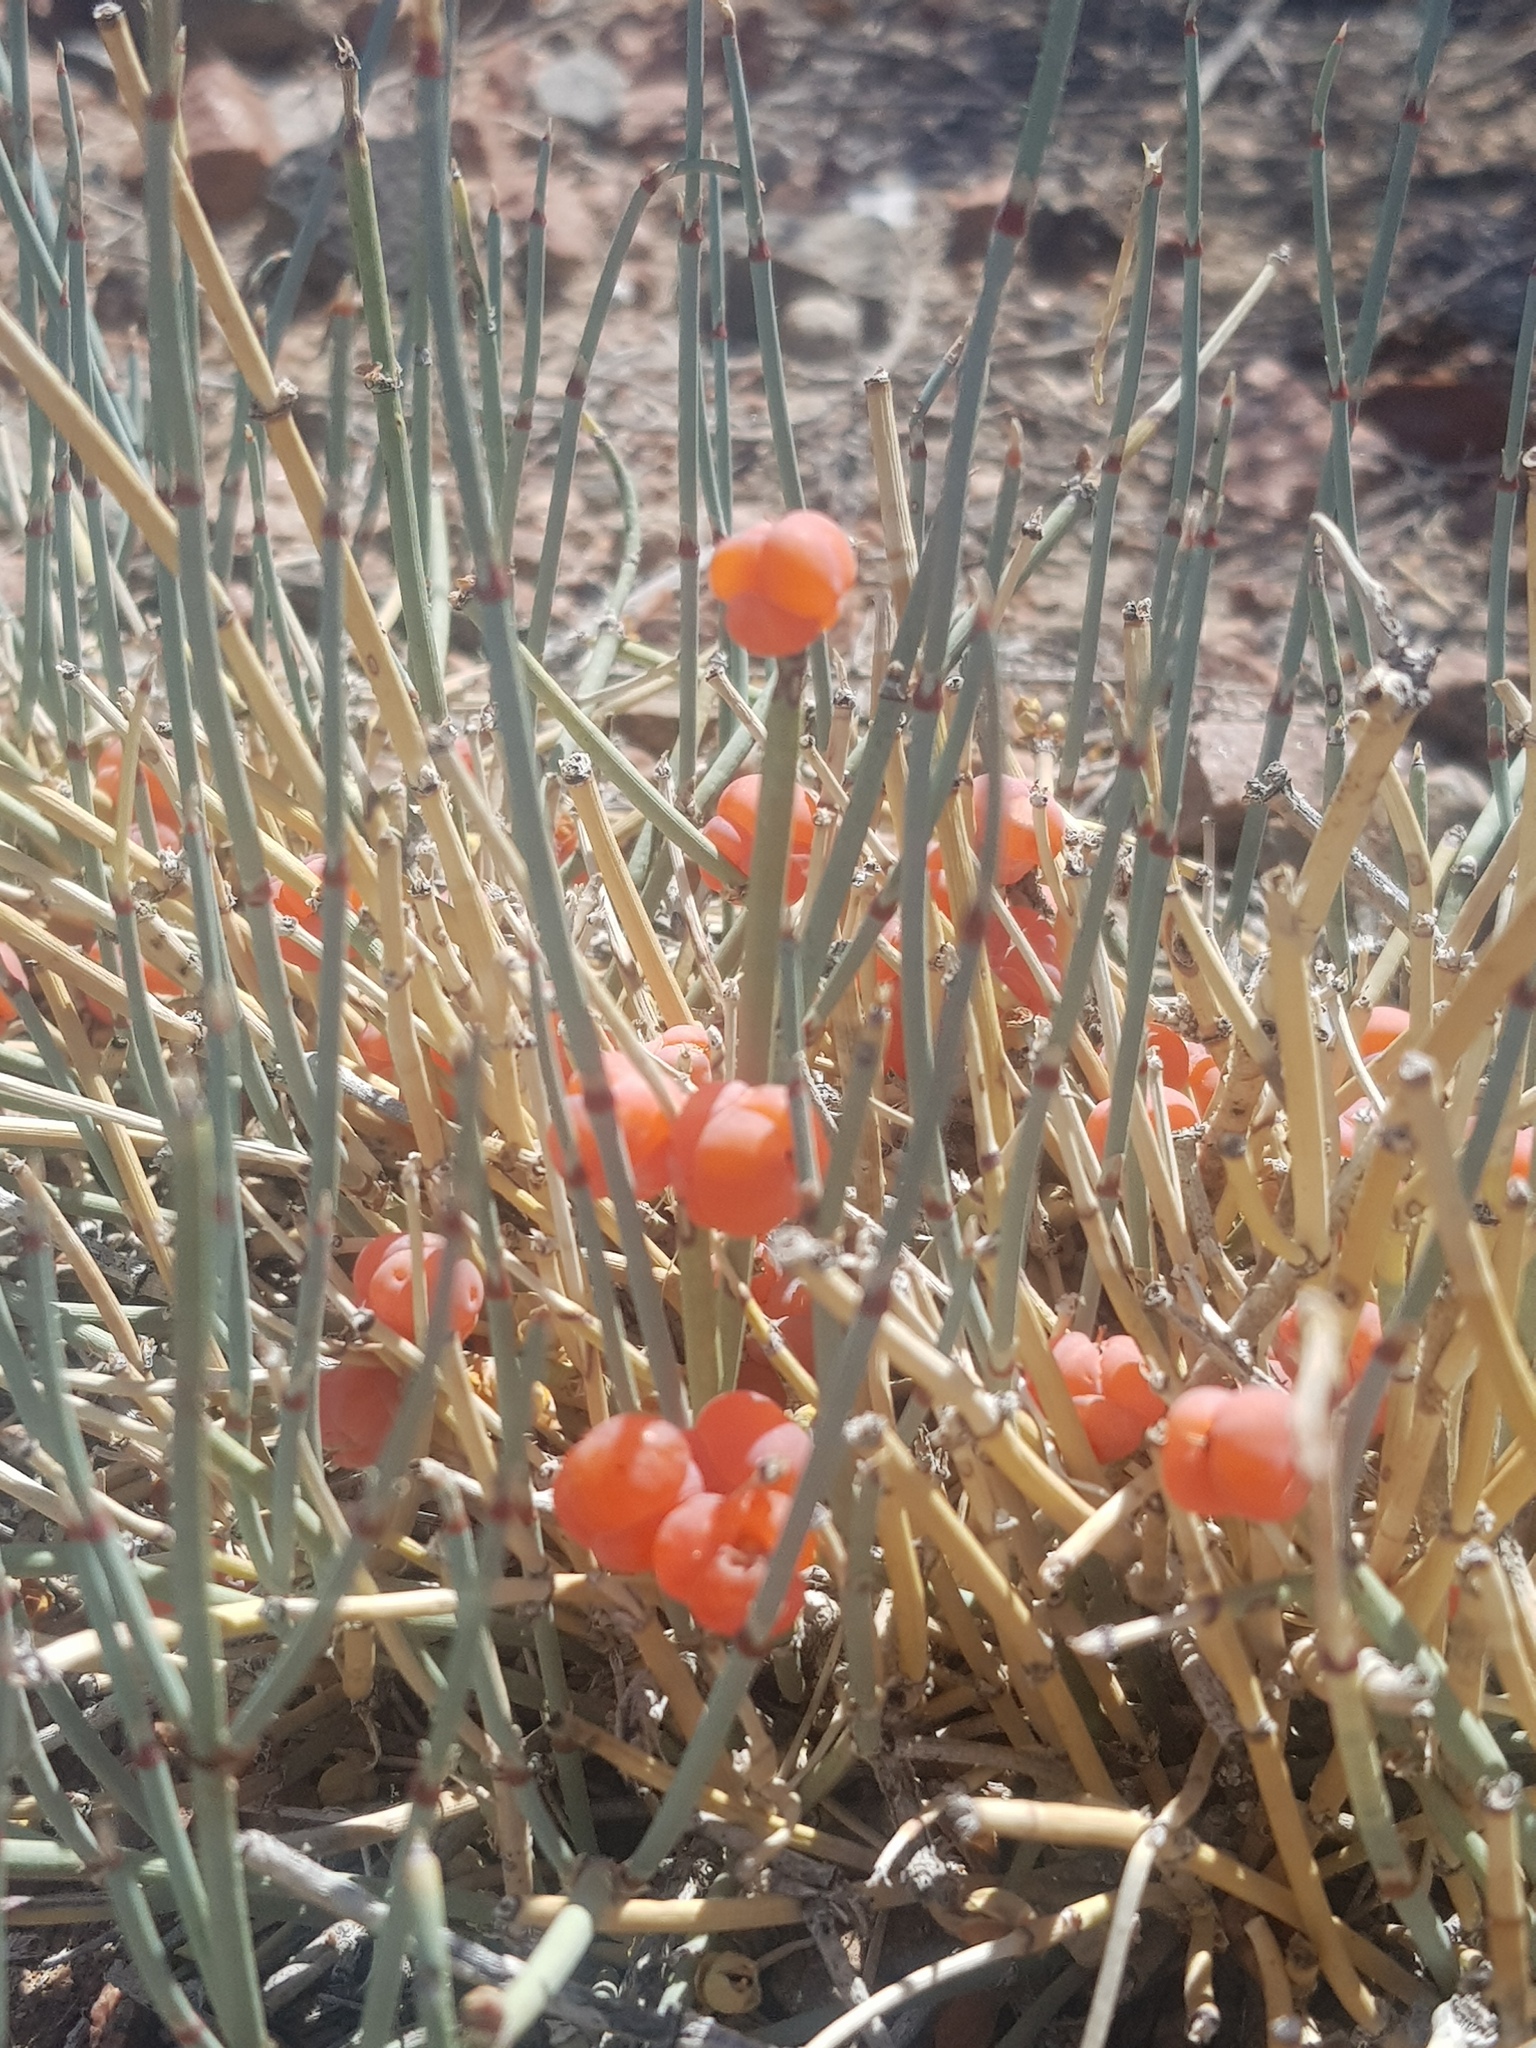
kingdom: Plantae
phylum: Tracheophyta
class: Gnetopsida
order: Ephedrales
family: Ephedraceae
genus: Ephedra
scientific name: Ephedra equisetina
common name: Mongolian ephedra
